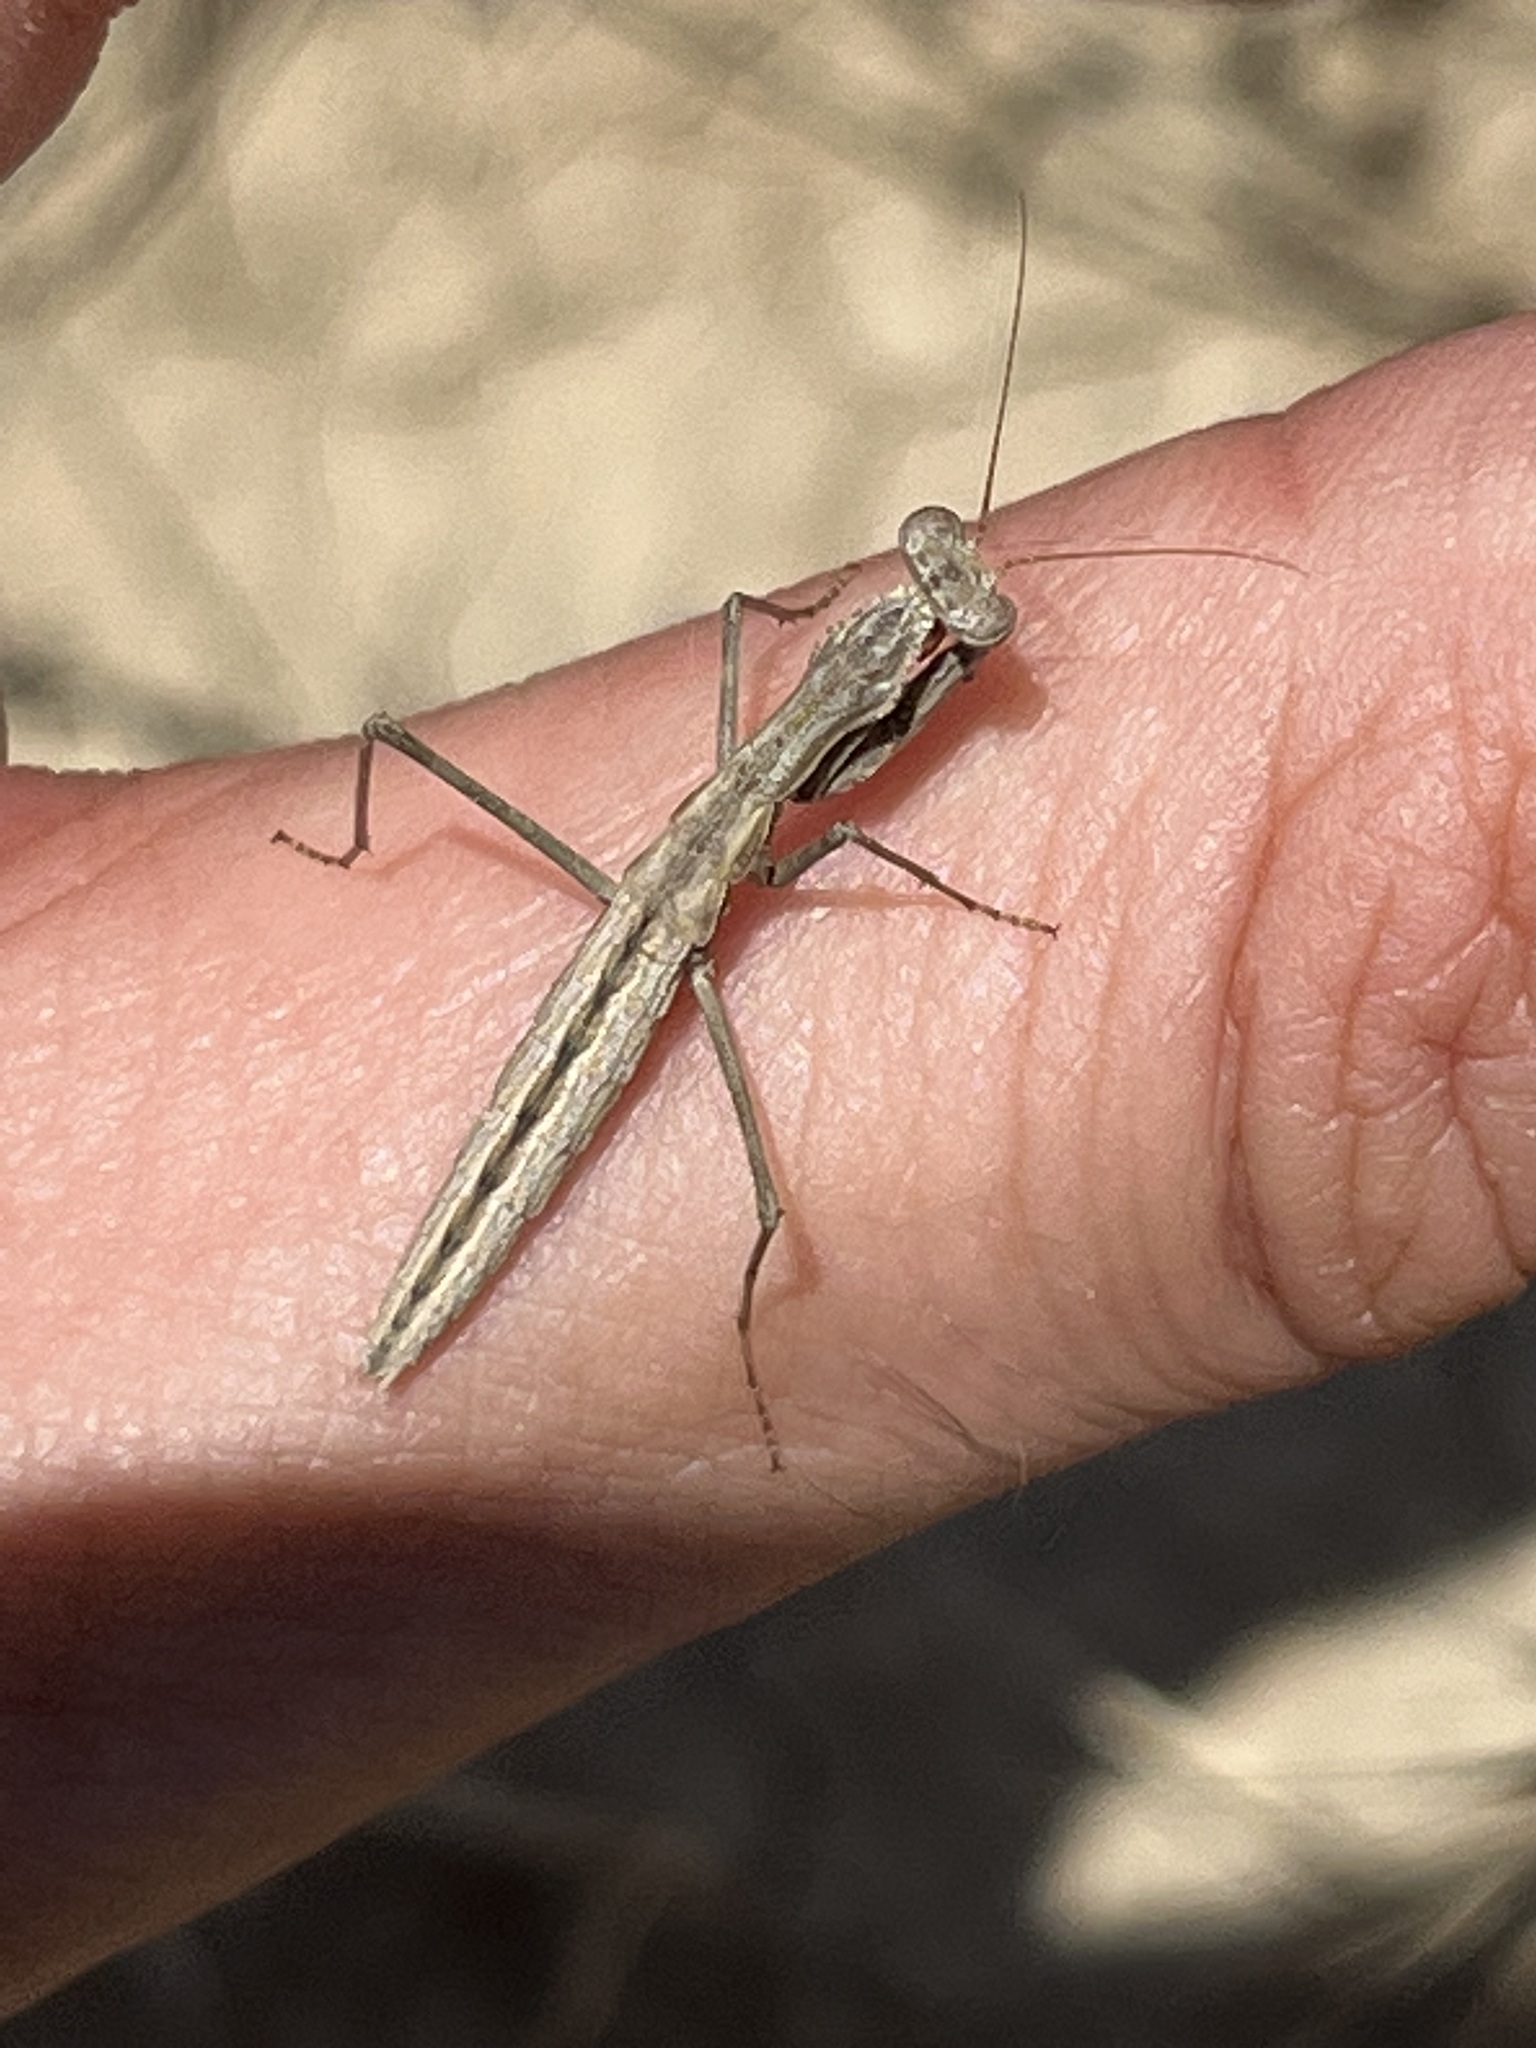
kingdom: Animalia
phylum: Arthropoda
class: Insecta
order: Mantodea
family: Rivetinidae
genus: Bolivaria
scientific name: Bolivaria brachyptera
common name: Bolivar's short winged mantis
